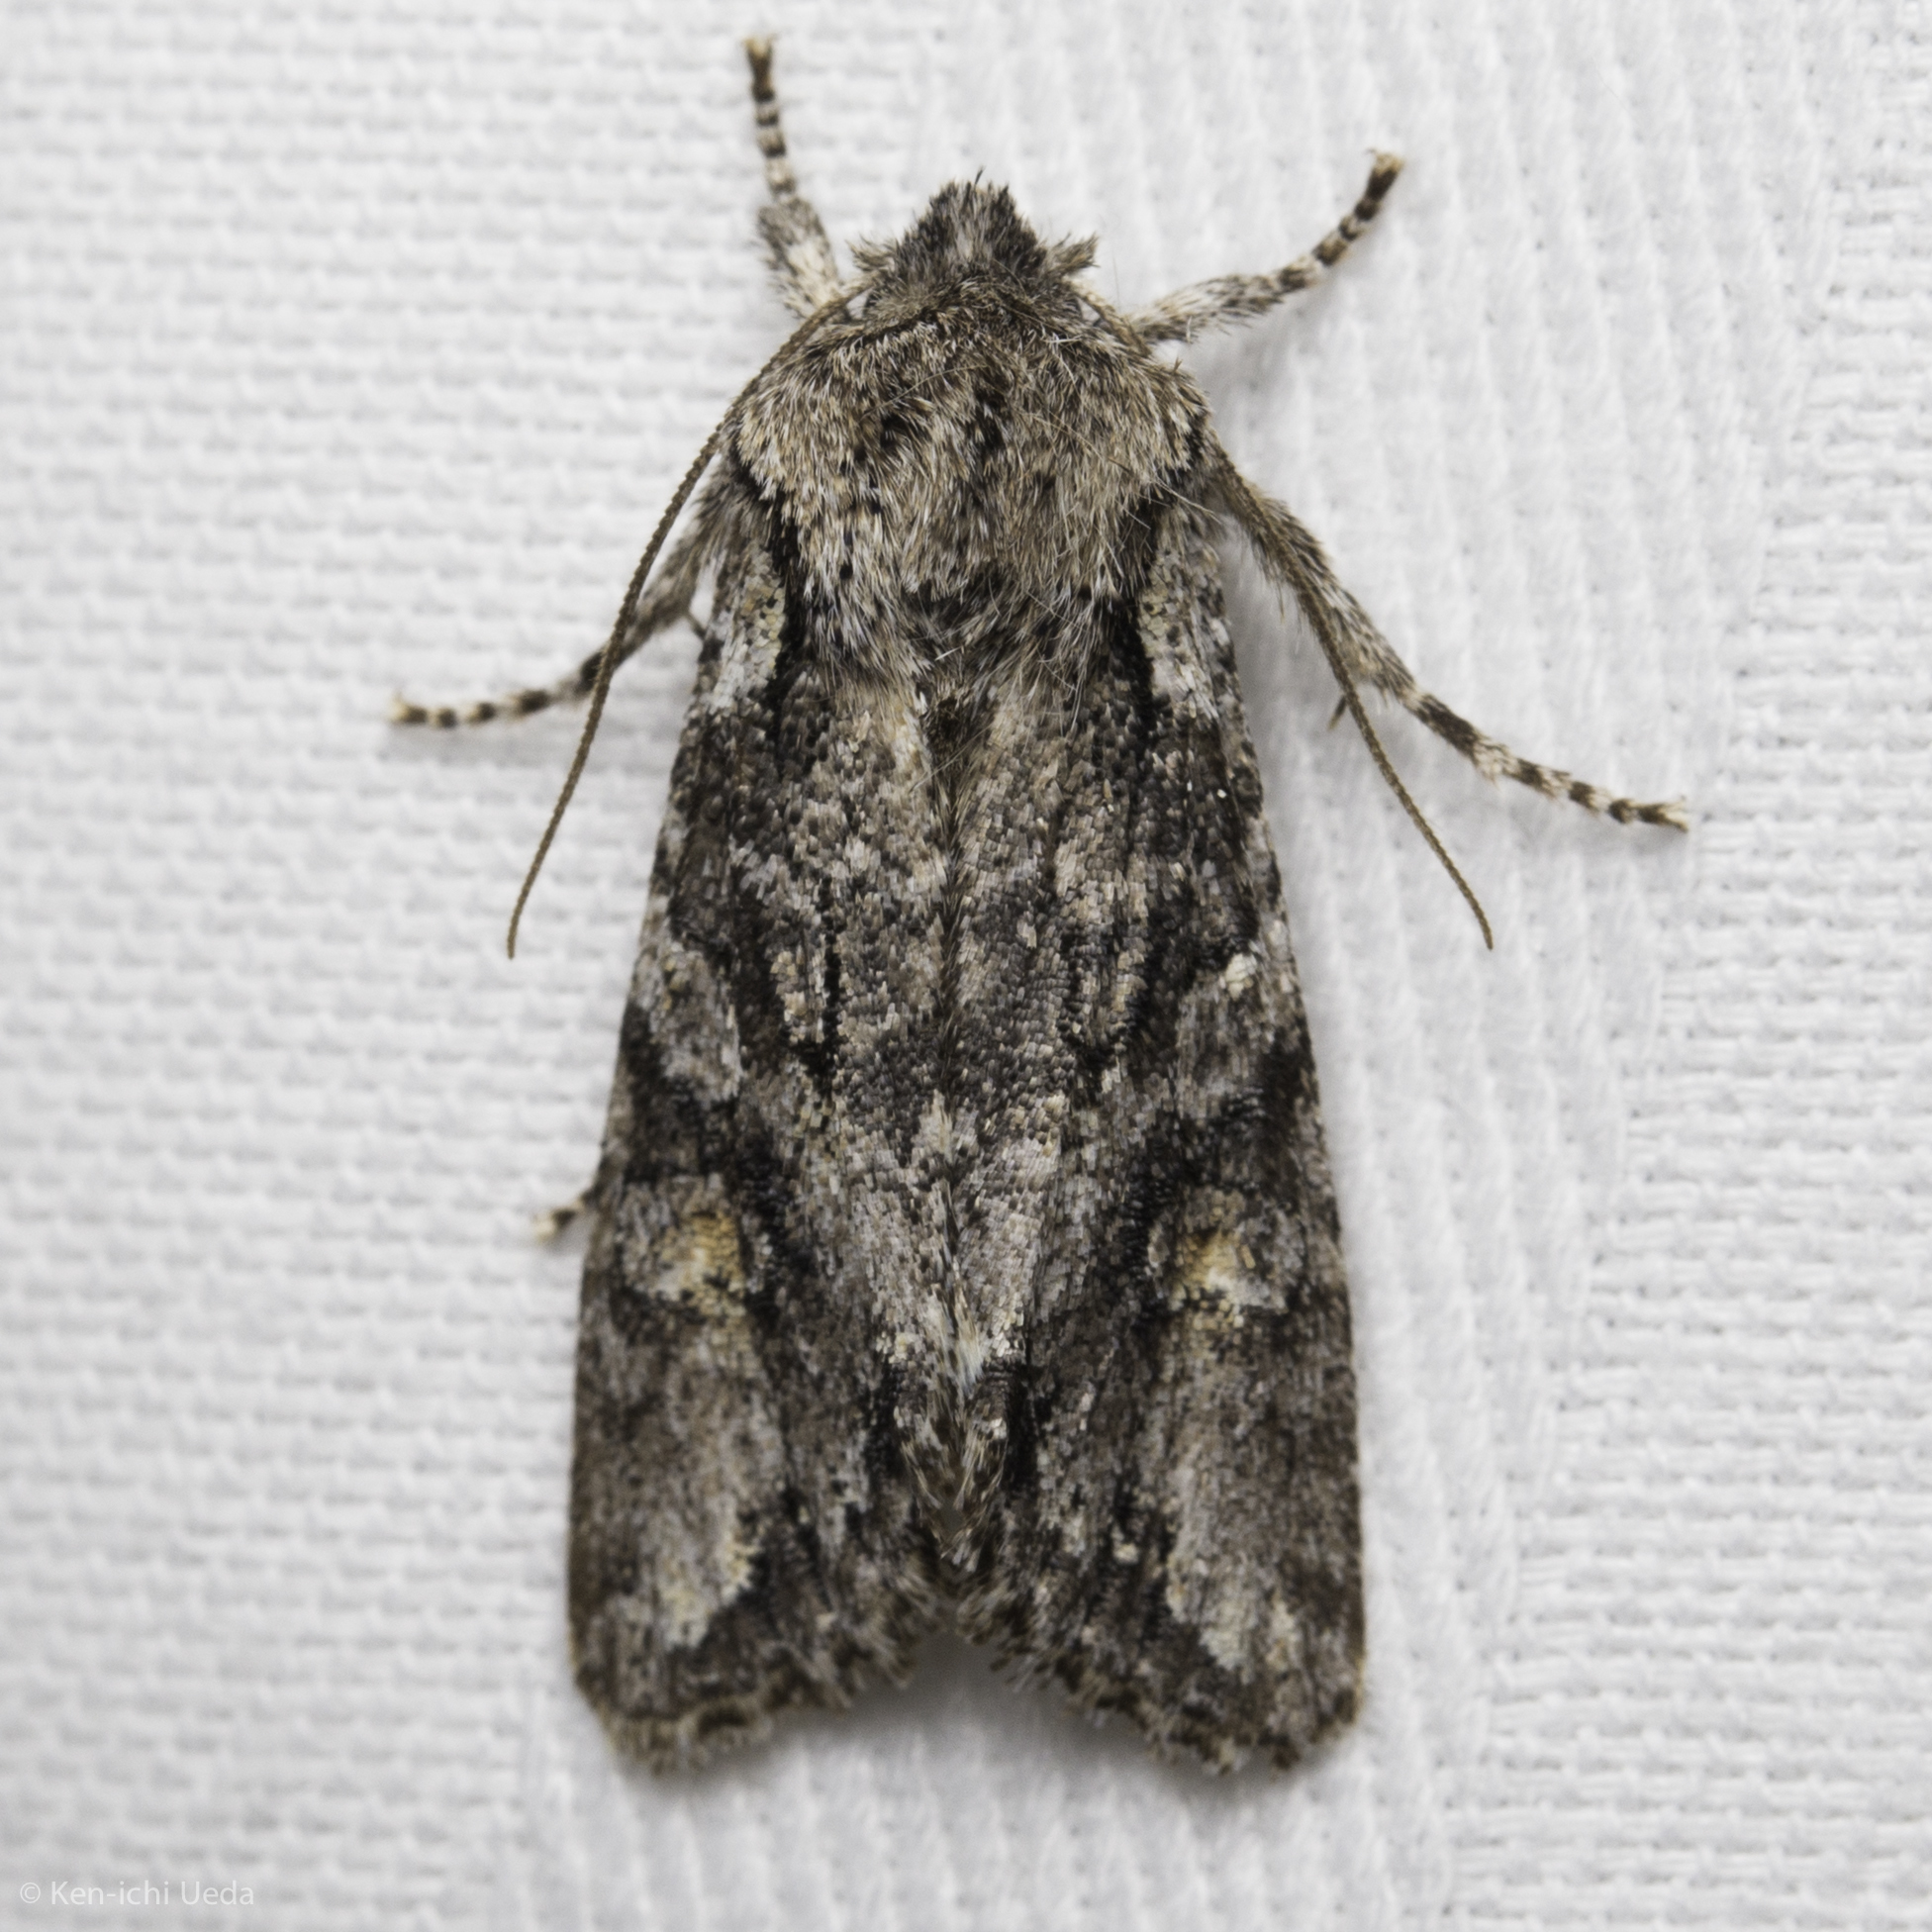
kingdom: Animalia
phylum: Arthropoda
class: Insecta
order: Lepidoptera
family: Noctuidae
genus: Egira
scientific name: Egira hiemalis
